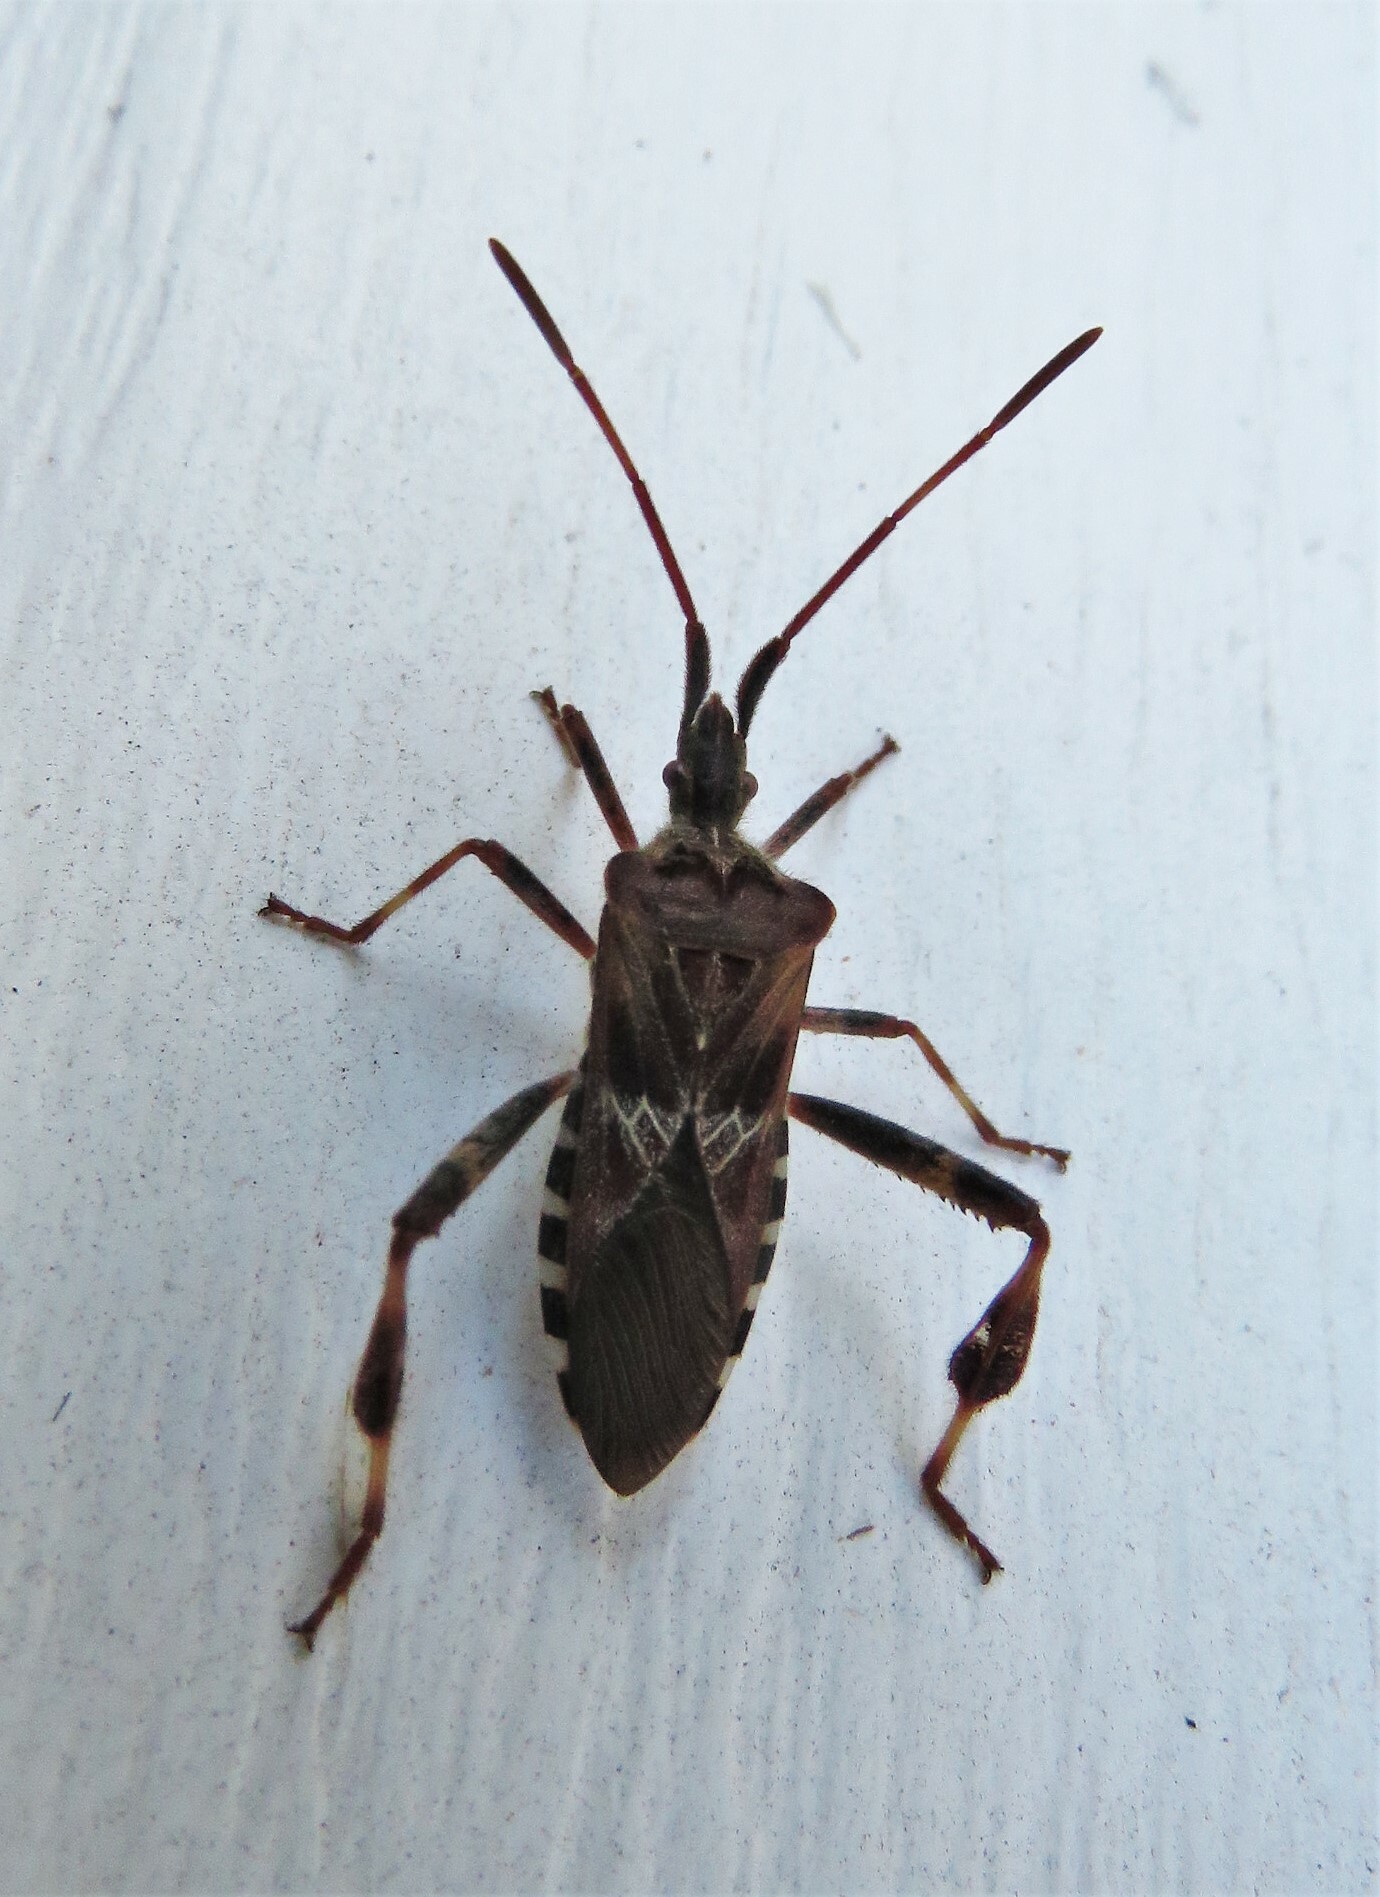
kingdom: Animalia
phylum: Arthropoda
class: Insecta
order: Hemiptera
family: Coreidae
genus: Leptoglossus
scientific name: Leptoglossus occidentalis
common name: Western conifer-seed bug
